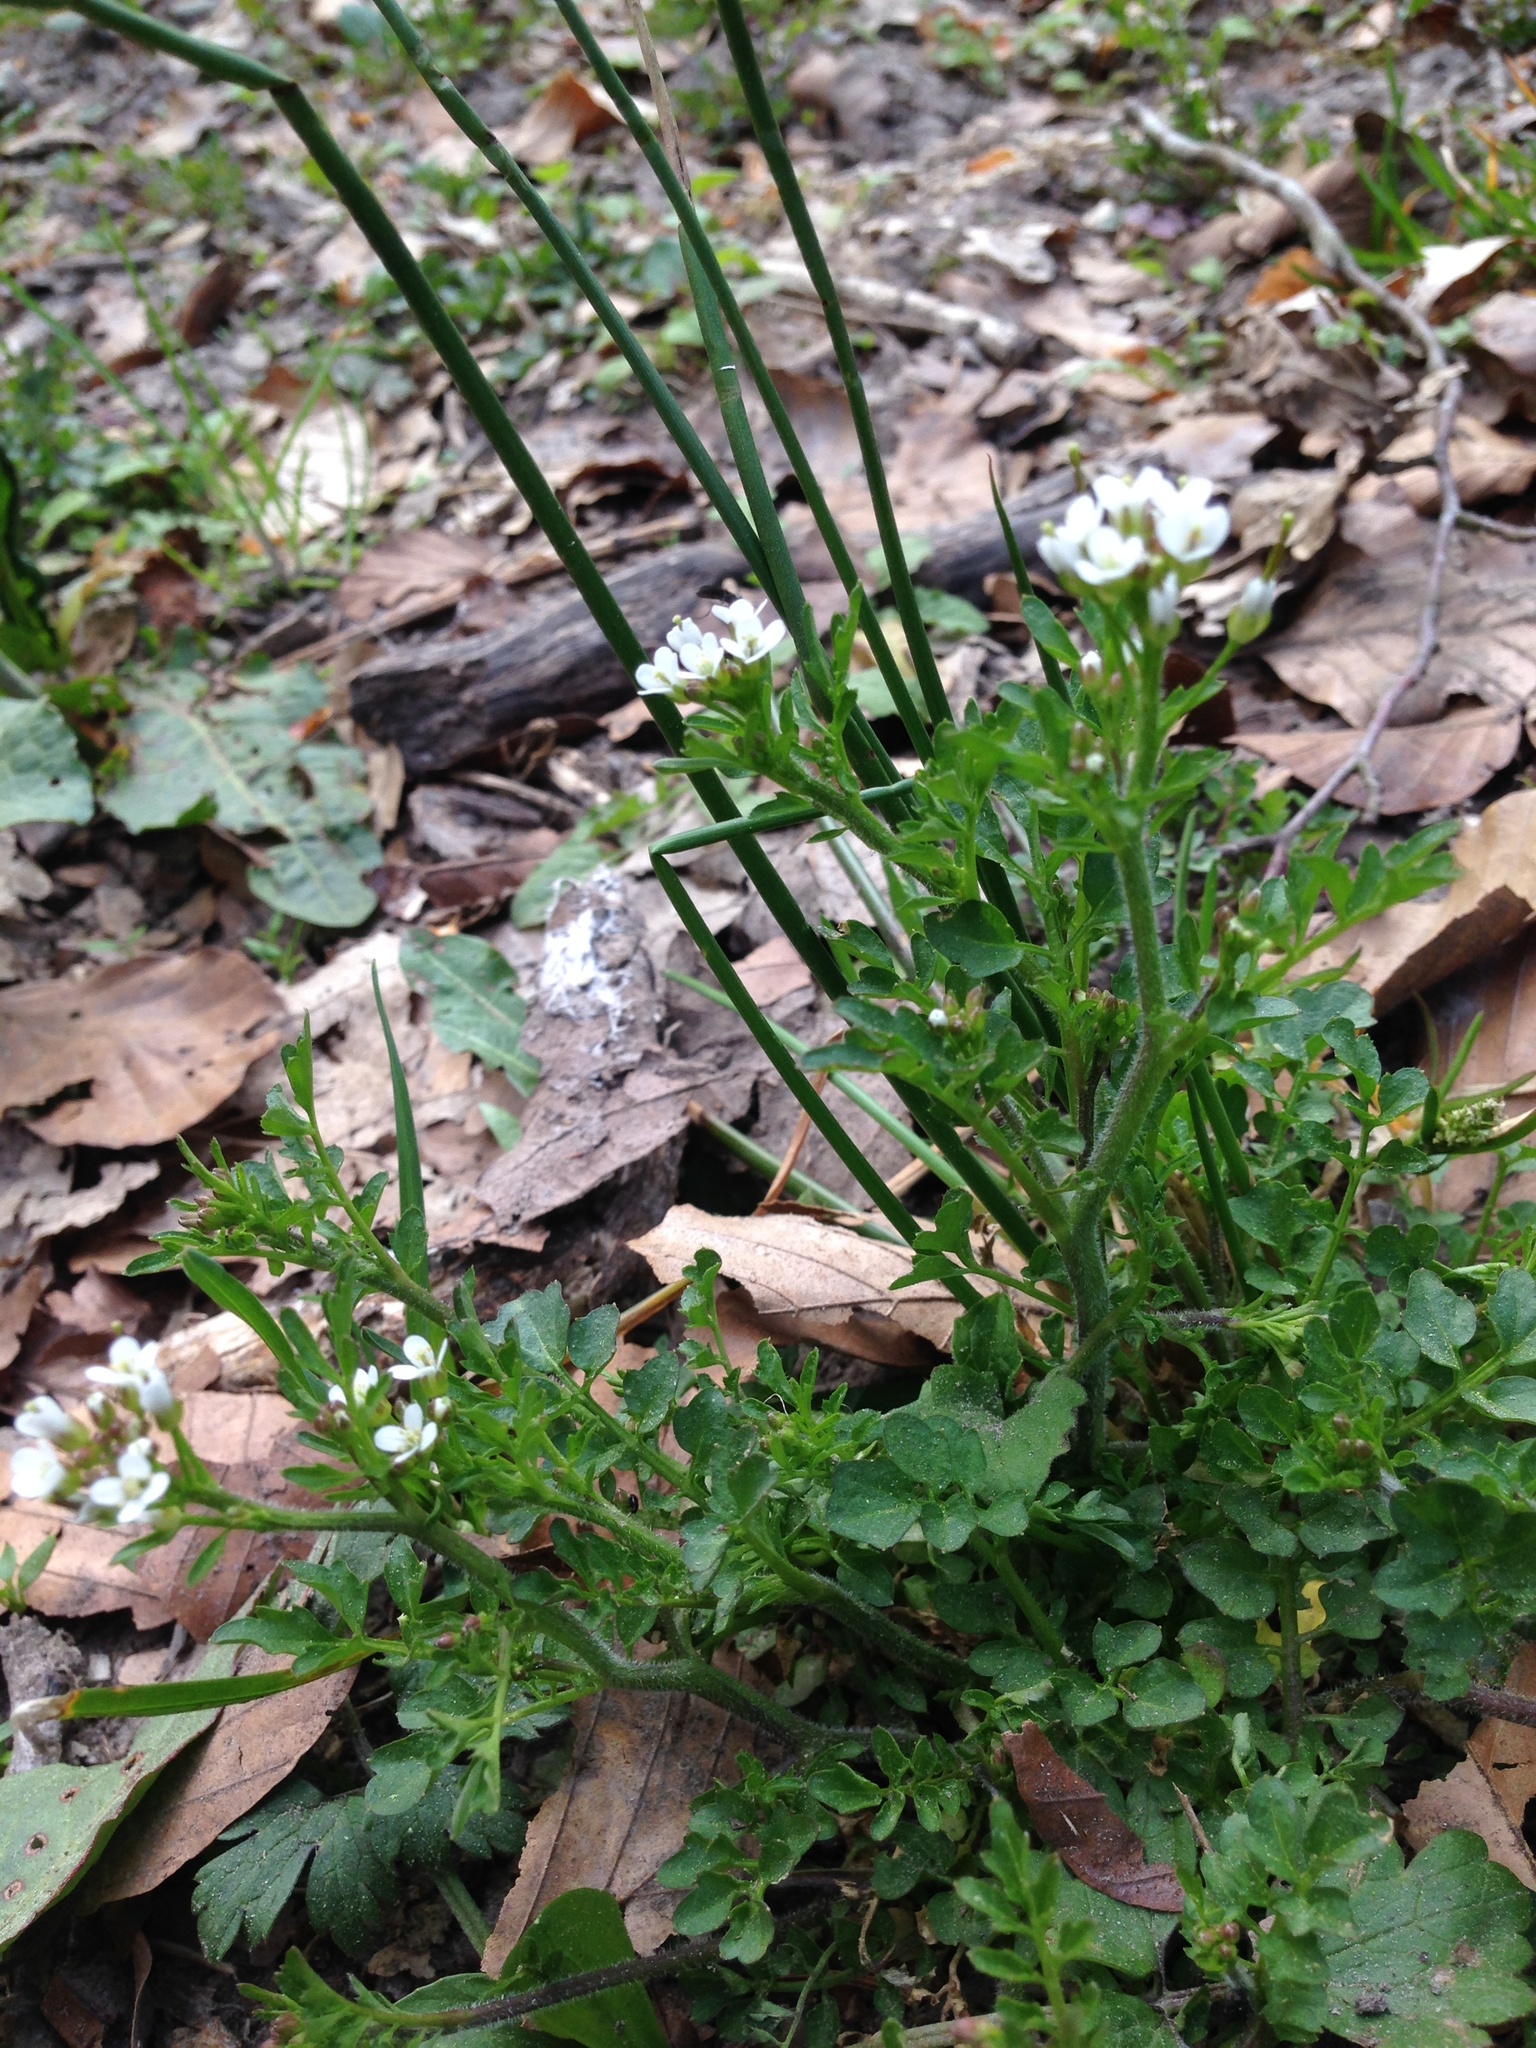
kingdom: Plantae
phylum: Tracheophyta
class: Magnoliopsida
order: Brassicales
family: Brassicaceae
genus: Cardamine
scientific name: Cardamine flexuosa
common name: Woodland bittercress
